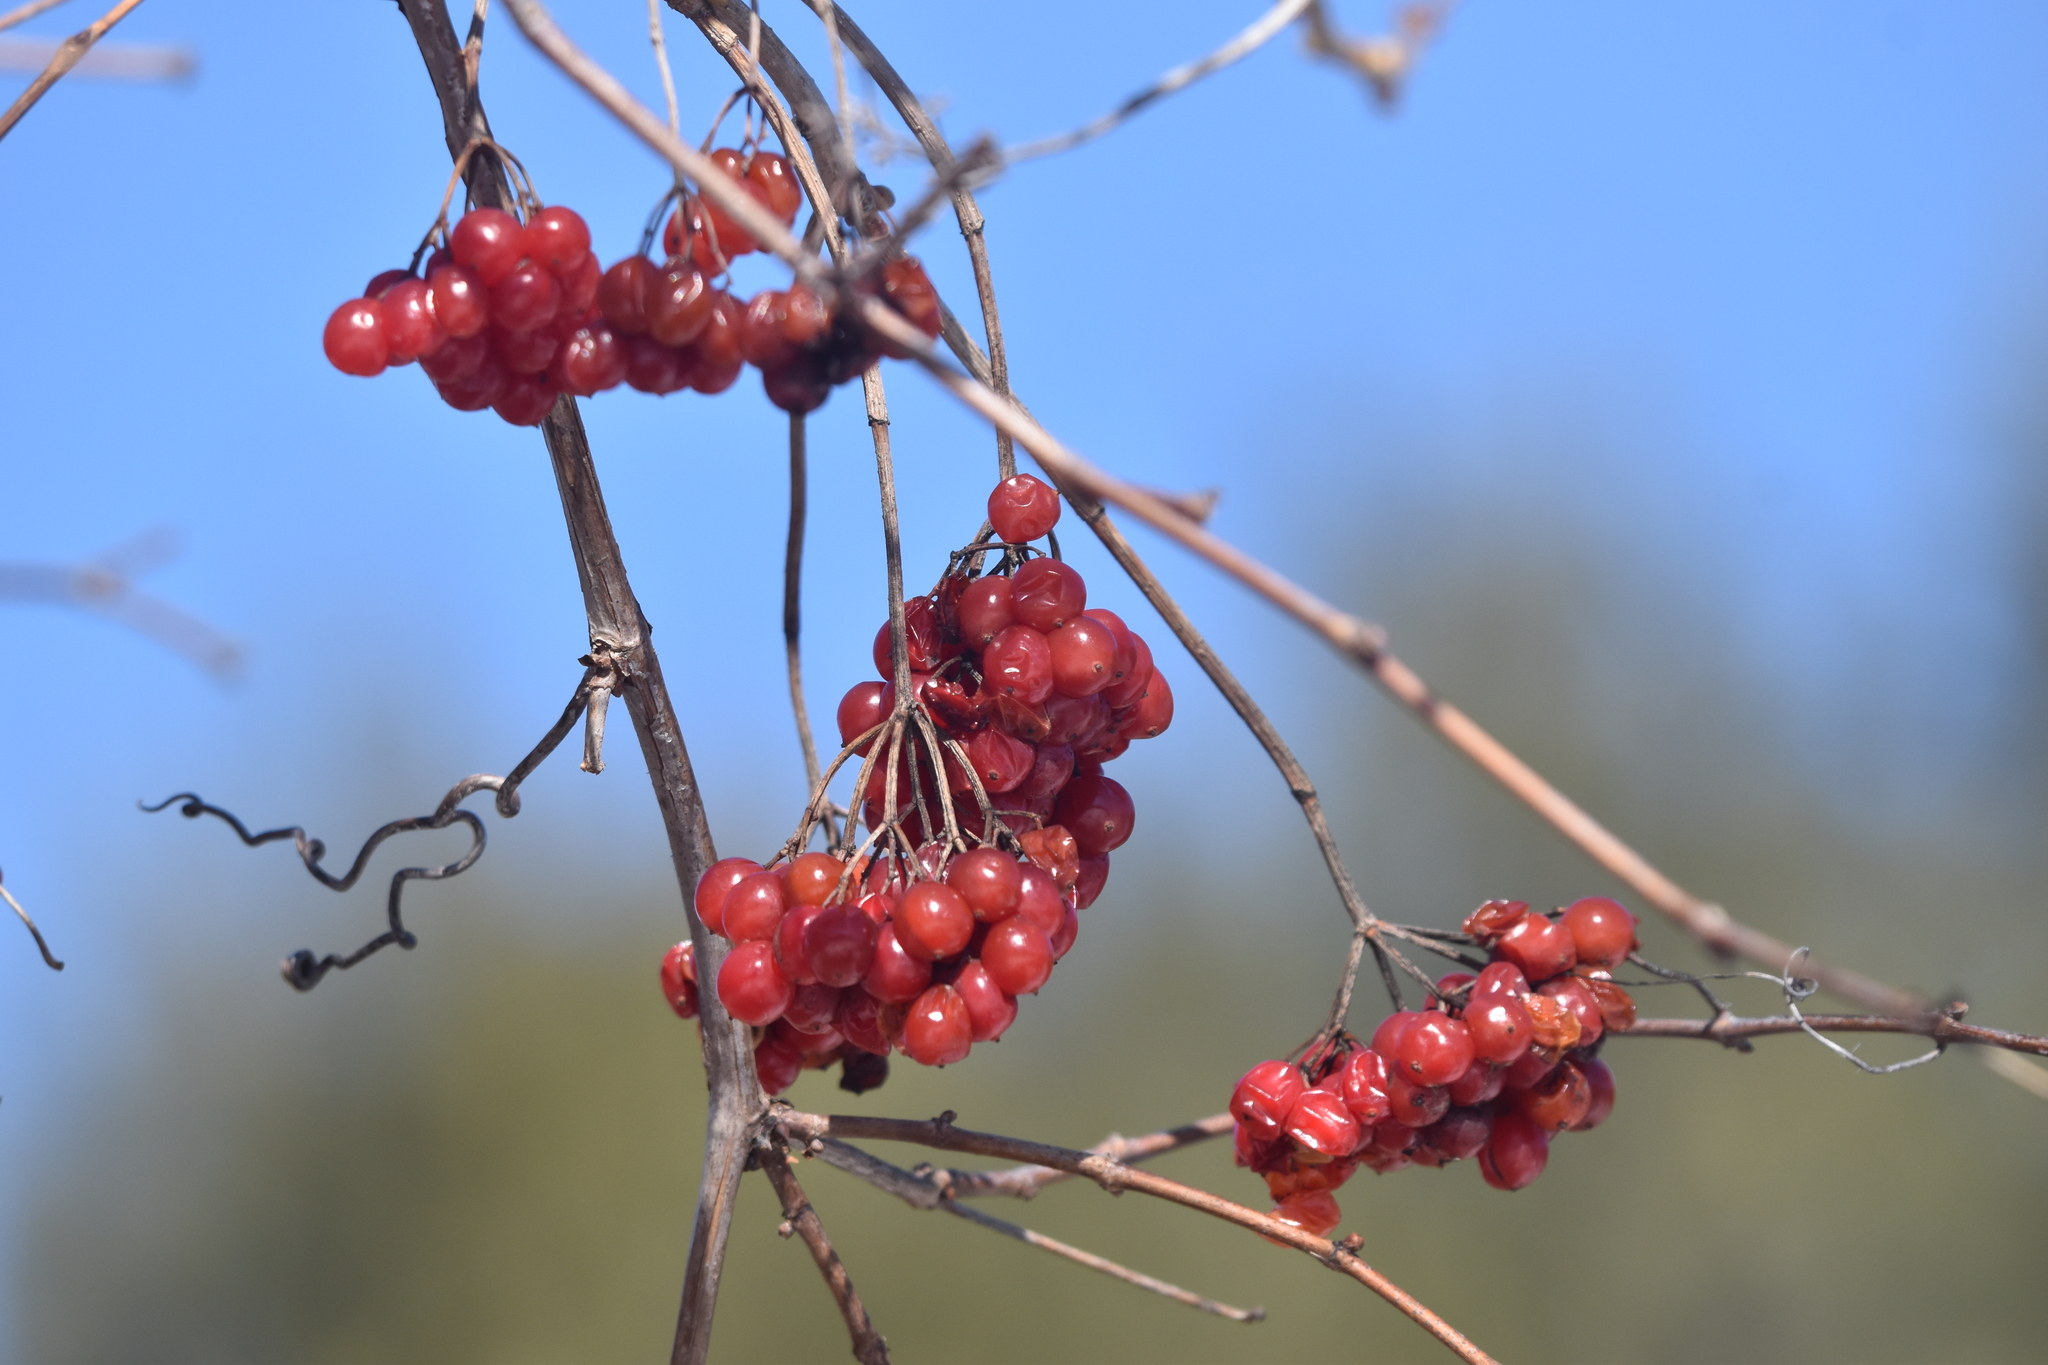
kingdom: Plantae
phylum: Tracheophyta
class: Magnoliopsida
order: Dipsacales
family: Viburnaceae
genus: Viburnum
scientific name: Viburnum opulus
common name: Guelder-rose
